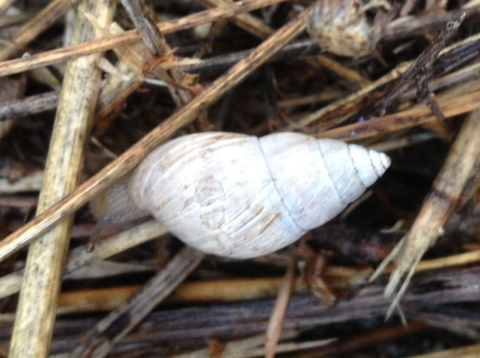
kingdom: Animalia
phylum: Mollusca
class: Gastropoda
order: Stylommatophora
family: Bulimulidae
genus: Rabdotus
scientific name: Rabdotus dealbatus
